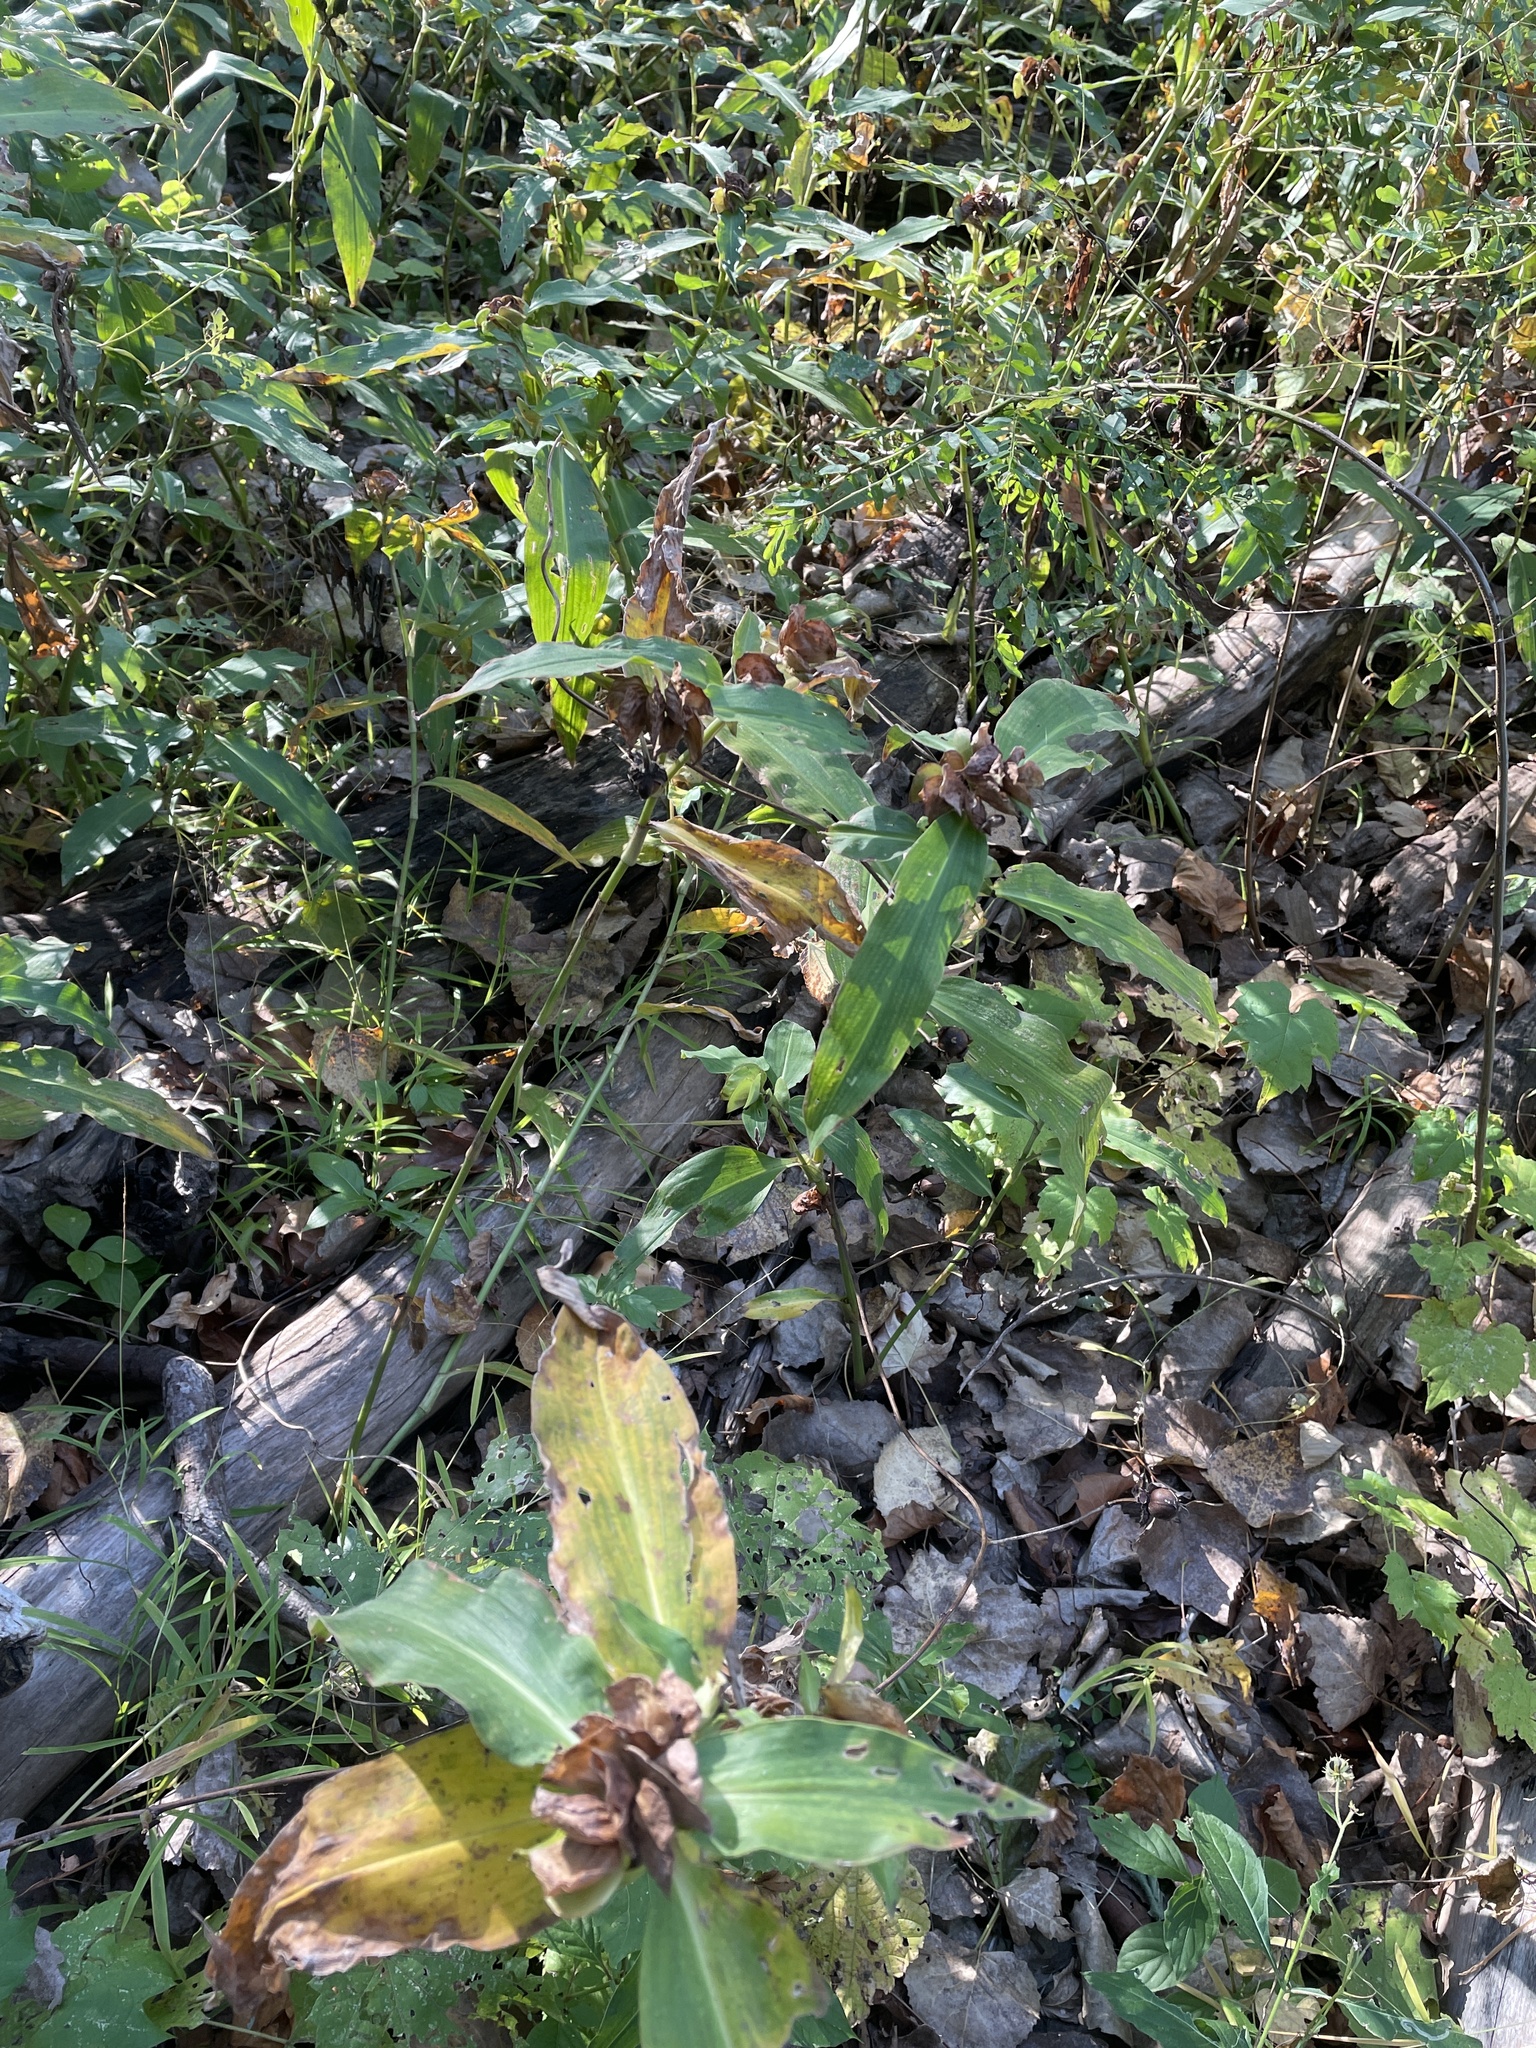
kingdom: Plantae
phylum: Tracheophyta
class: Liliopsida
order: Commelinales
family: Commelinaceae
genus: Commelina
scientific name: Commelina virginica
